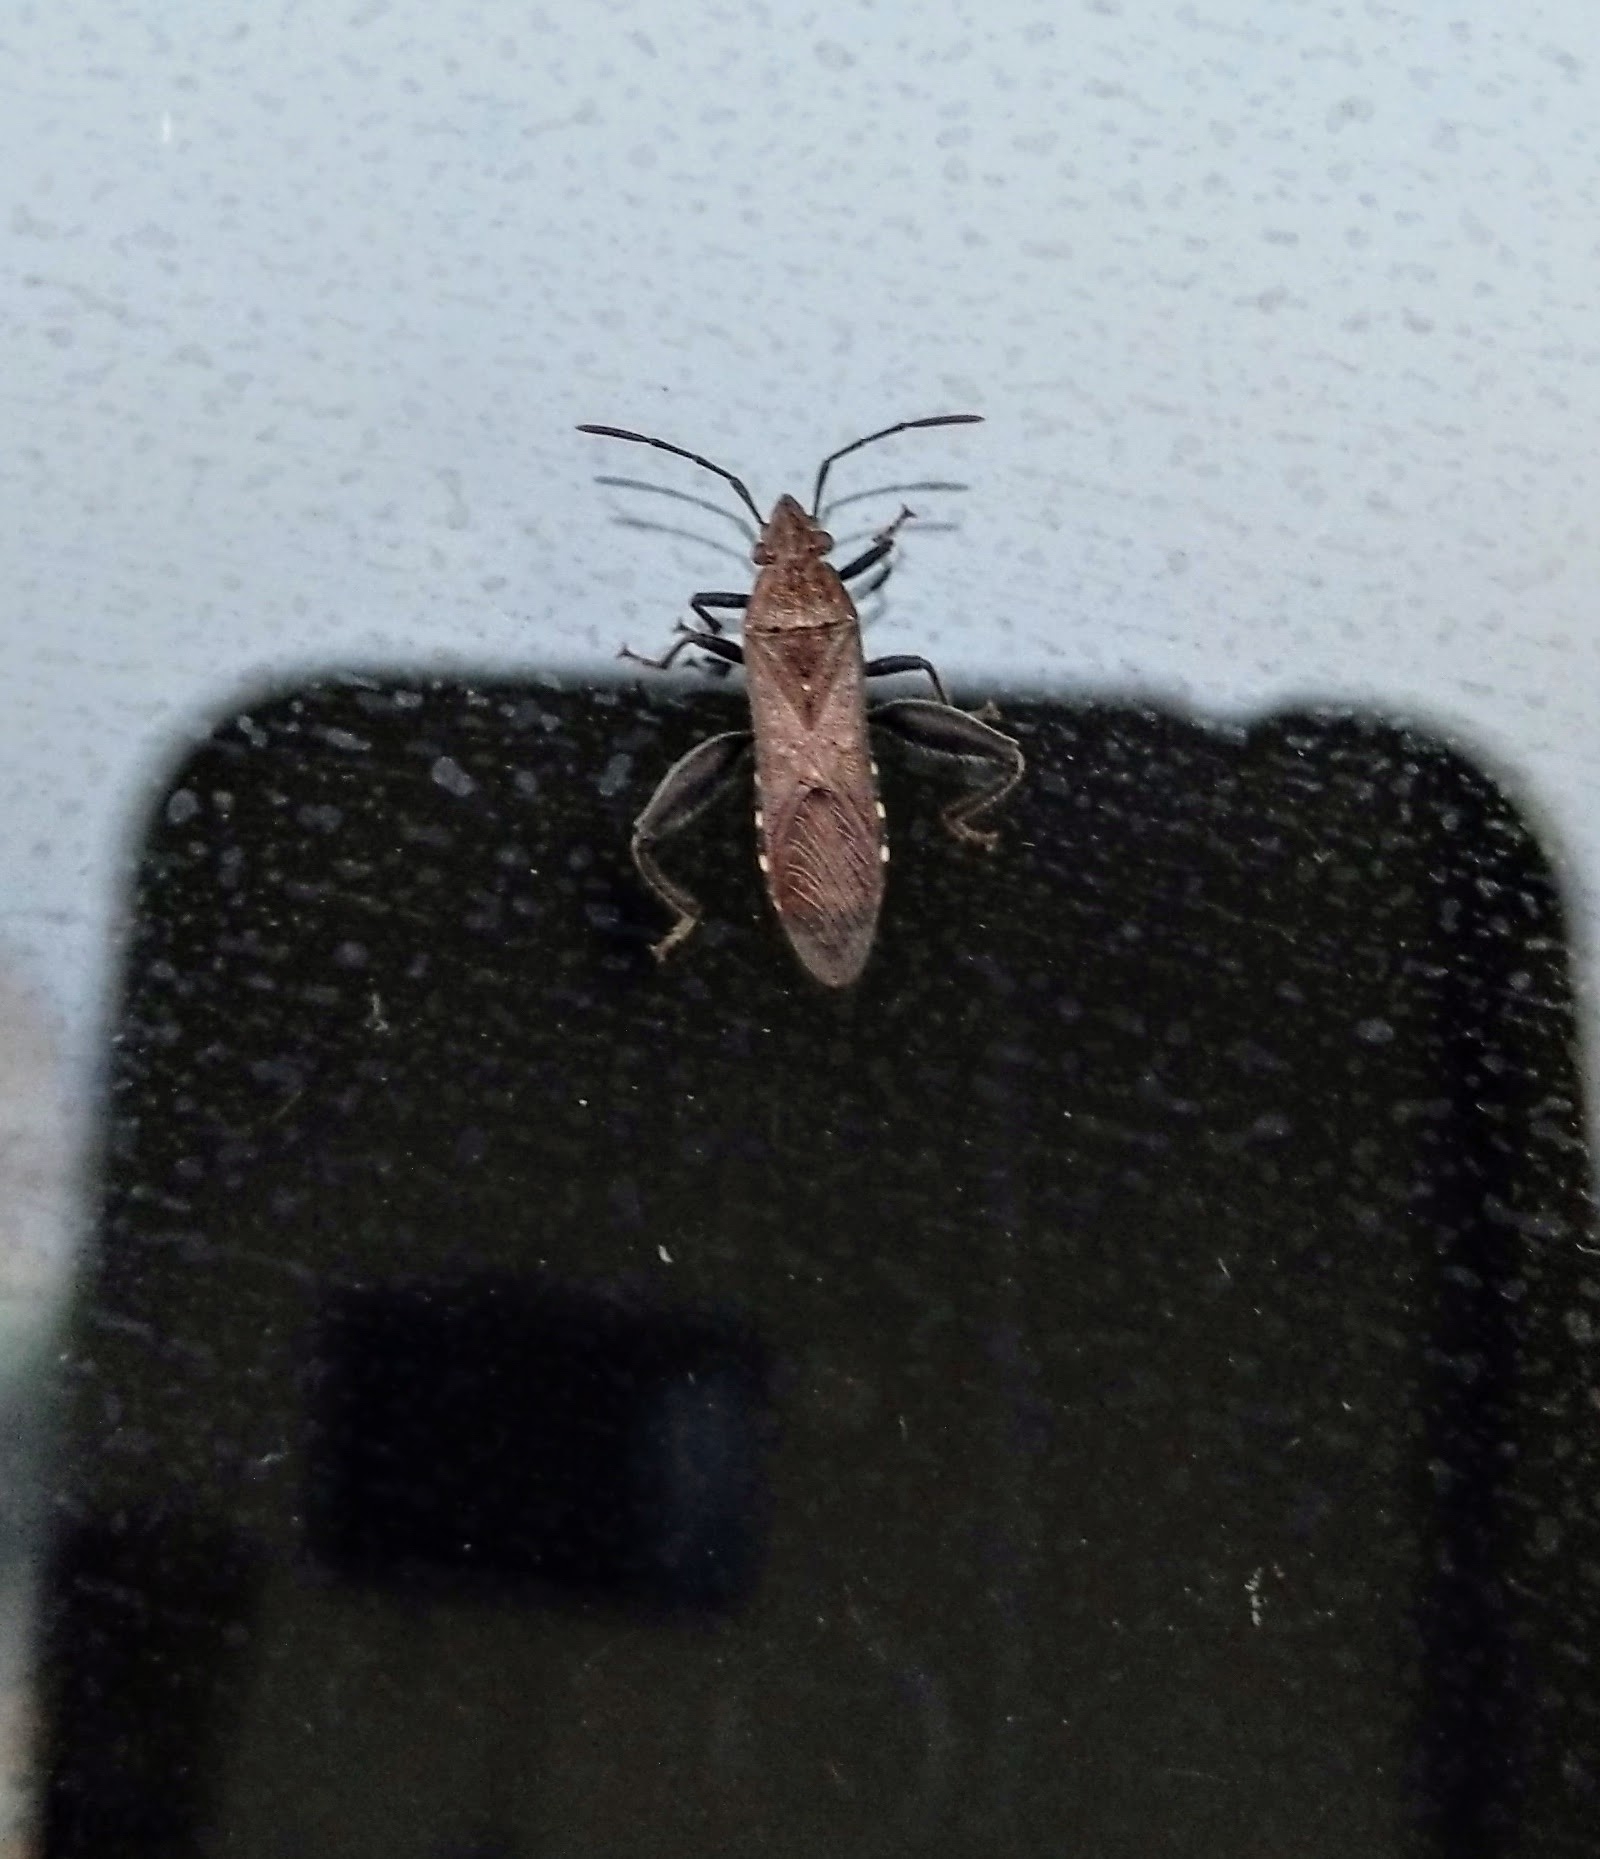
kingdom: Animalia
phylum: Arthropoda
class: Insecta
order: Hemiptera
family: Alydidae
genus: Daclera
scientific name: Daclera levana
